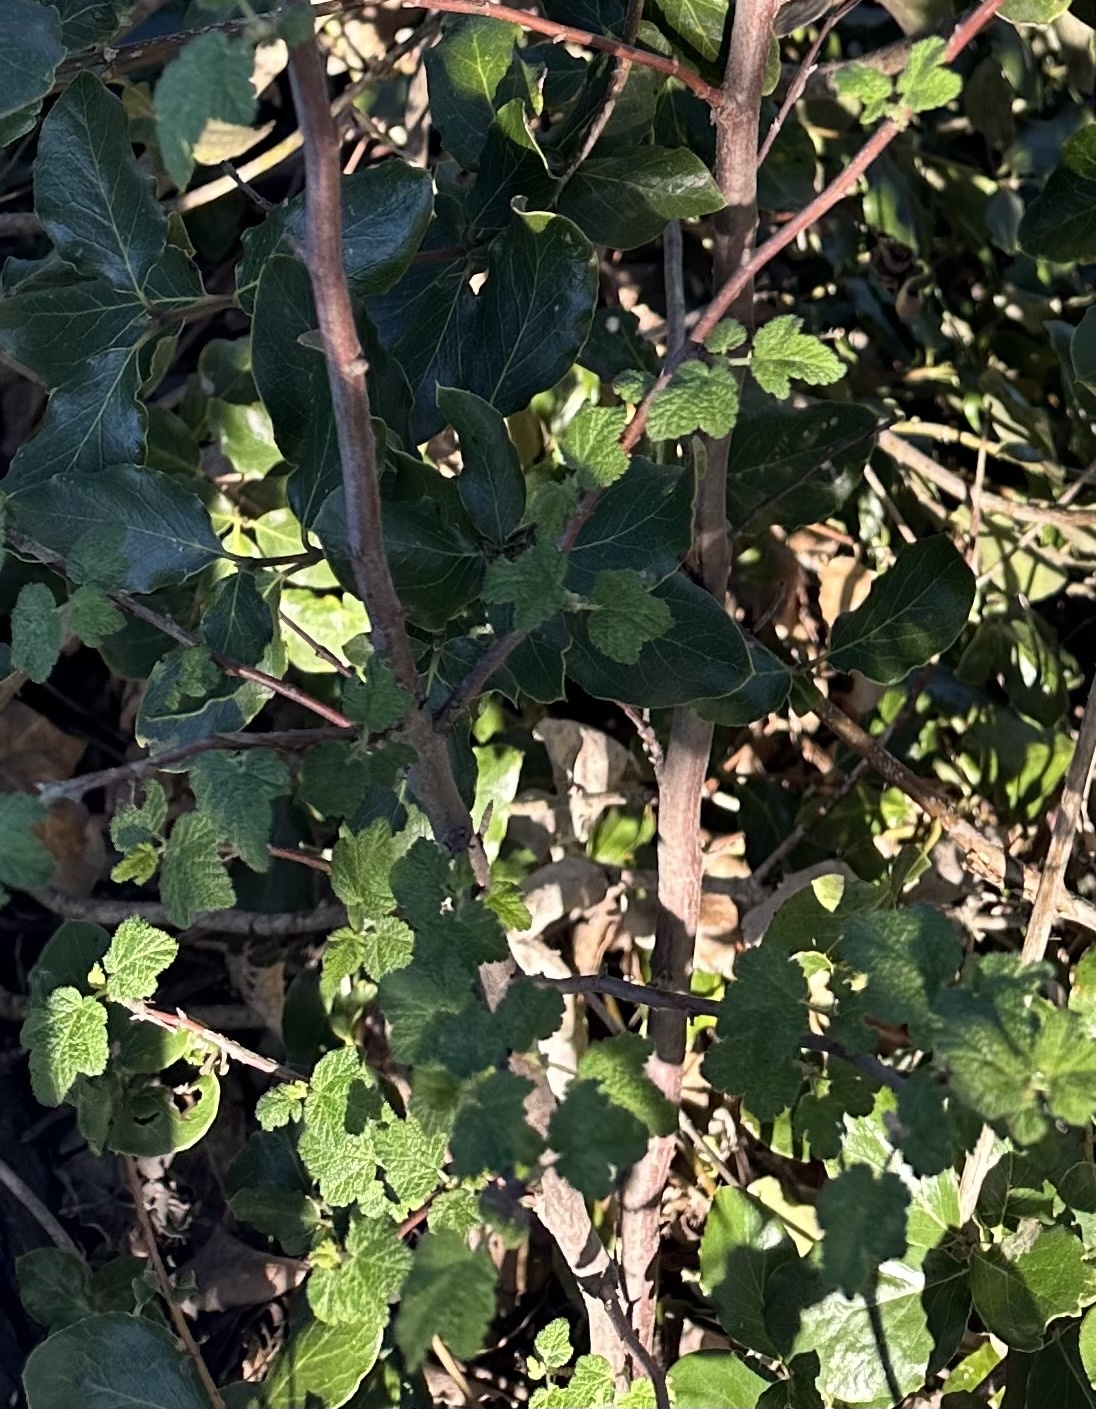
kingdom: Plantae
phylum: Tracheophyta
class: Magnoliopsida
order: Saxifragales
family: Grossulariaceae
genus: Ribes
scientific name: Ribes malvaceum
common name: Chaparral currant
